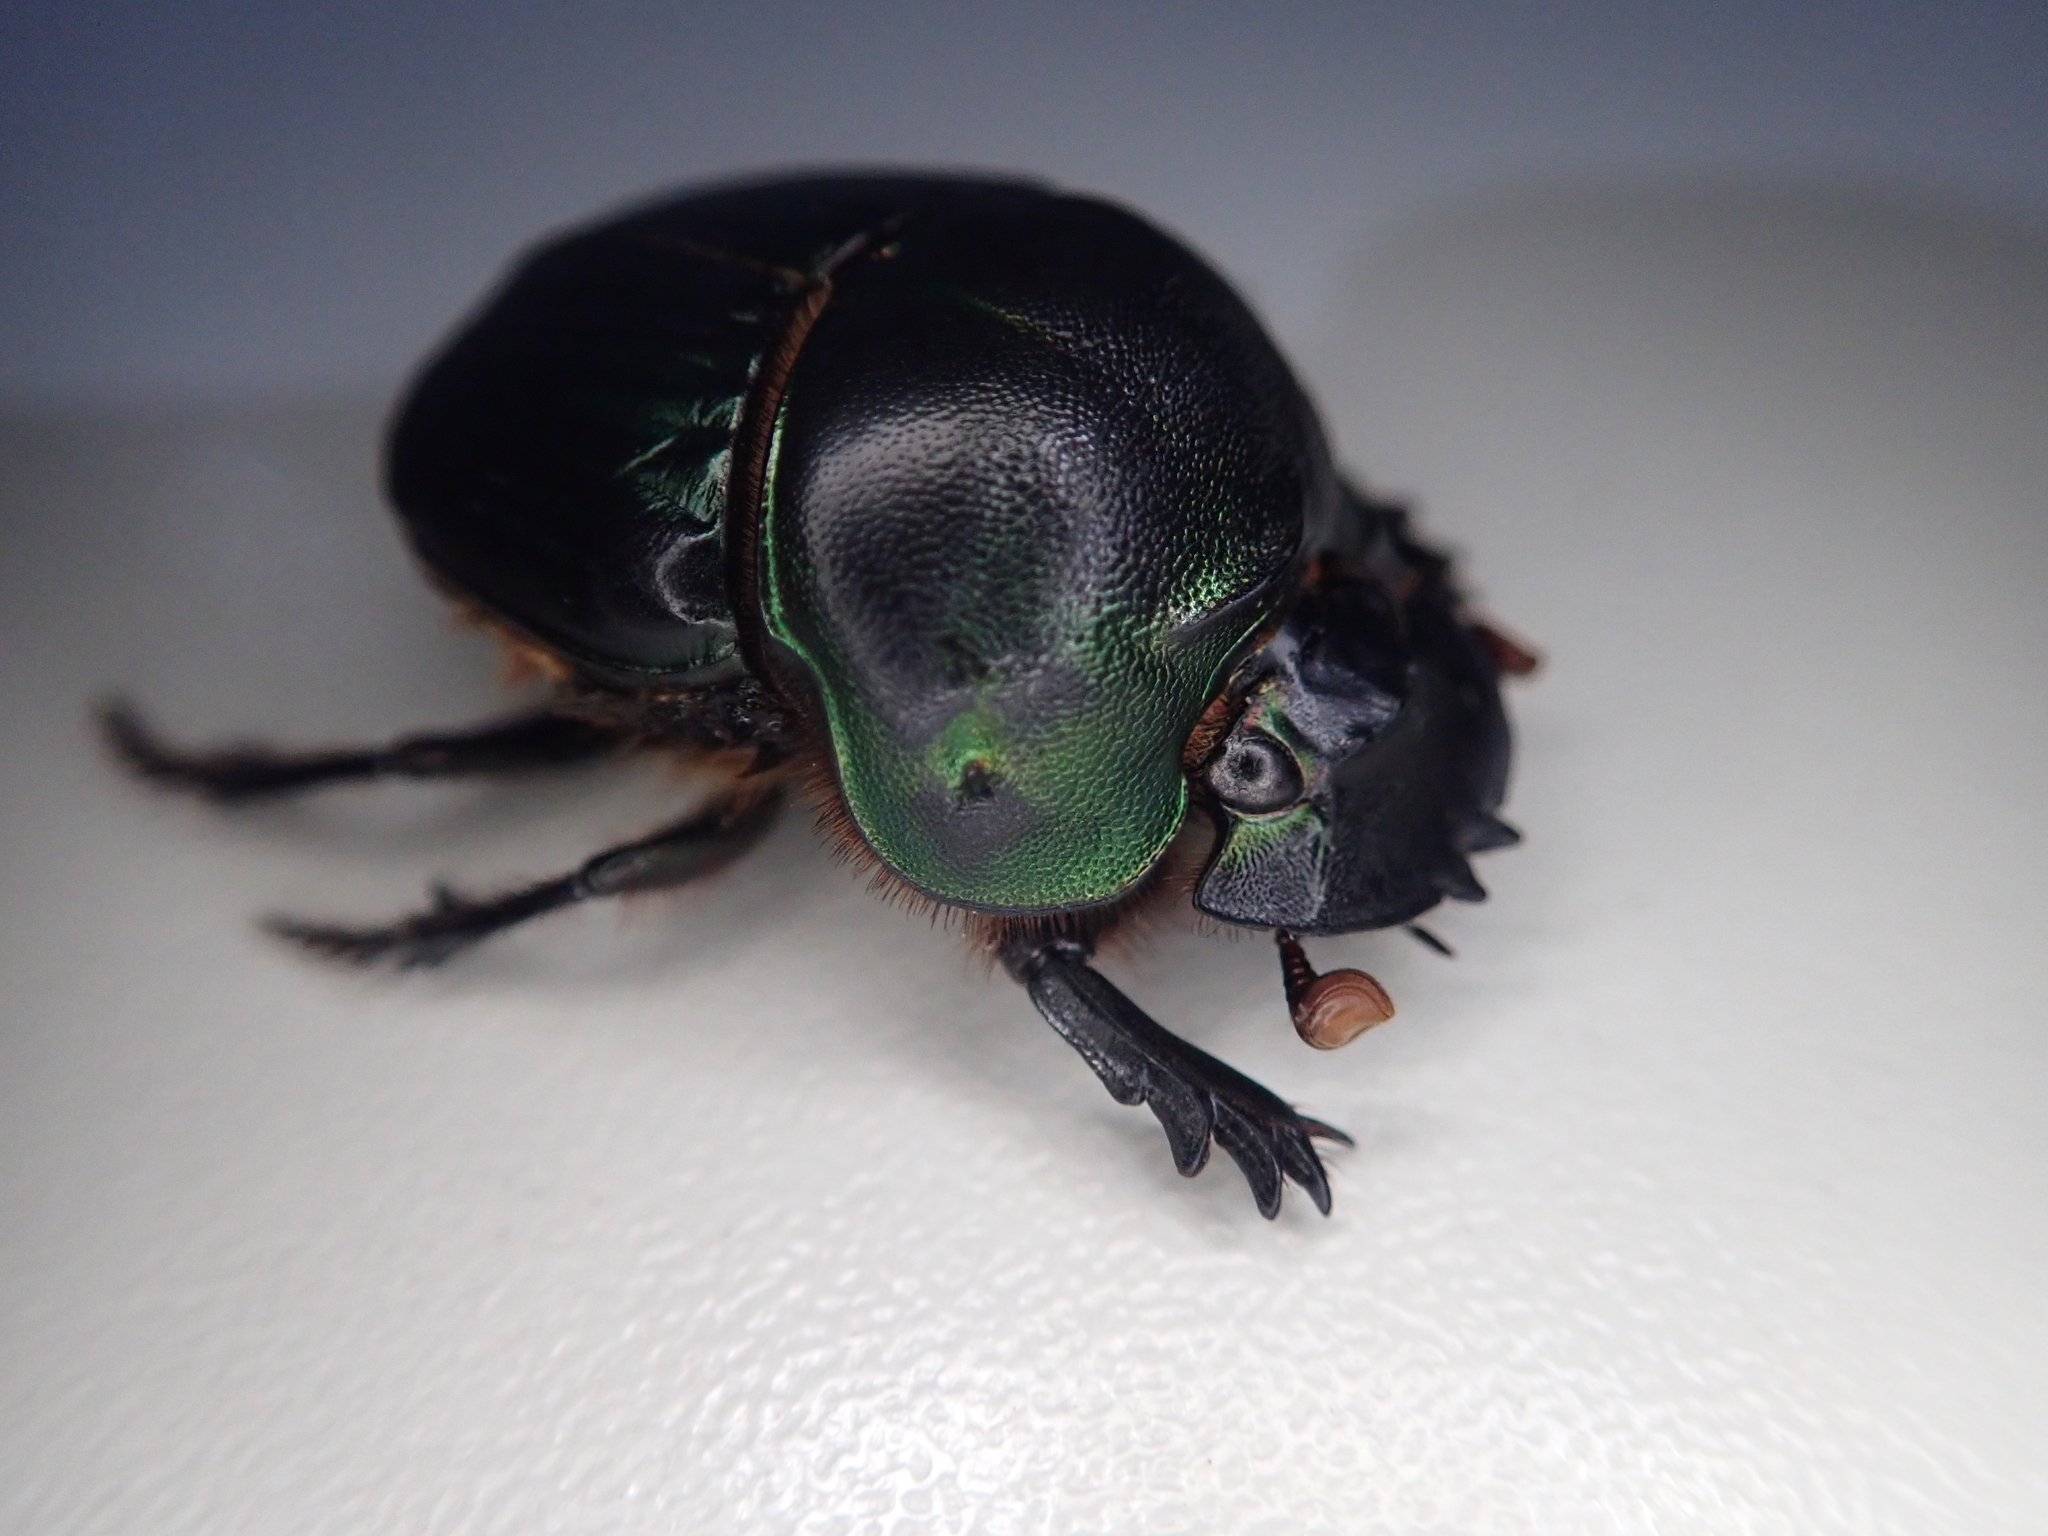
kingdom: Animalia
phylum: Arthropoda
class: Insecta
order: Coleoptera
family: Scarabaeidae
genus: Coprophanaeus
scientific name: Coprophanaeus spitzi
